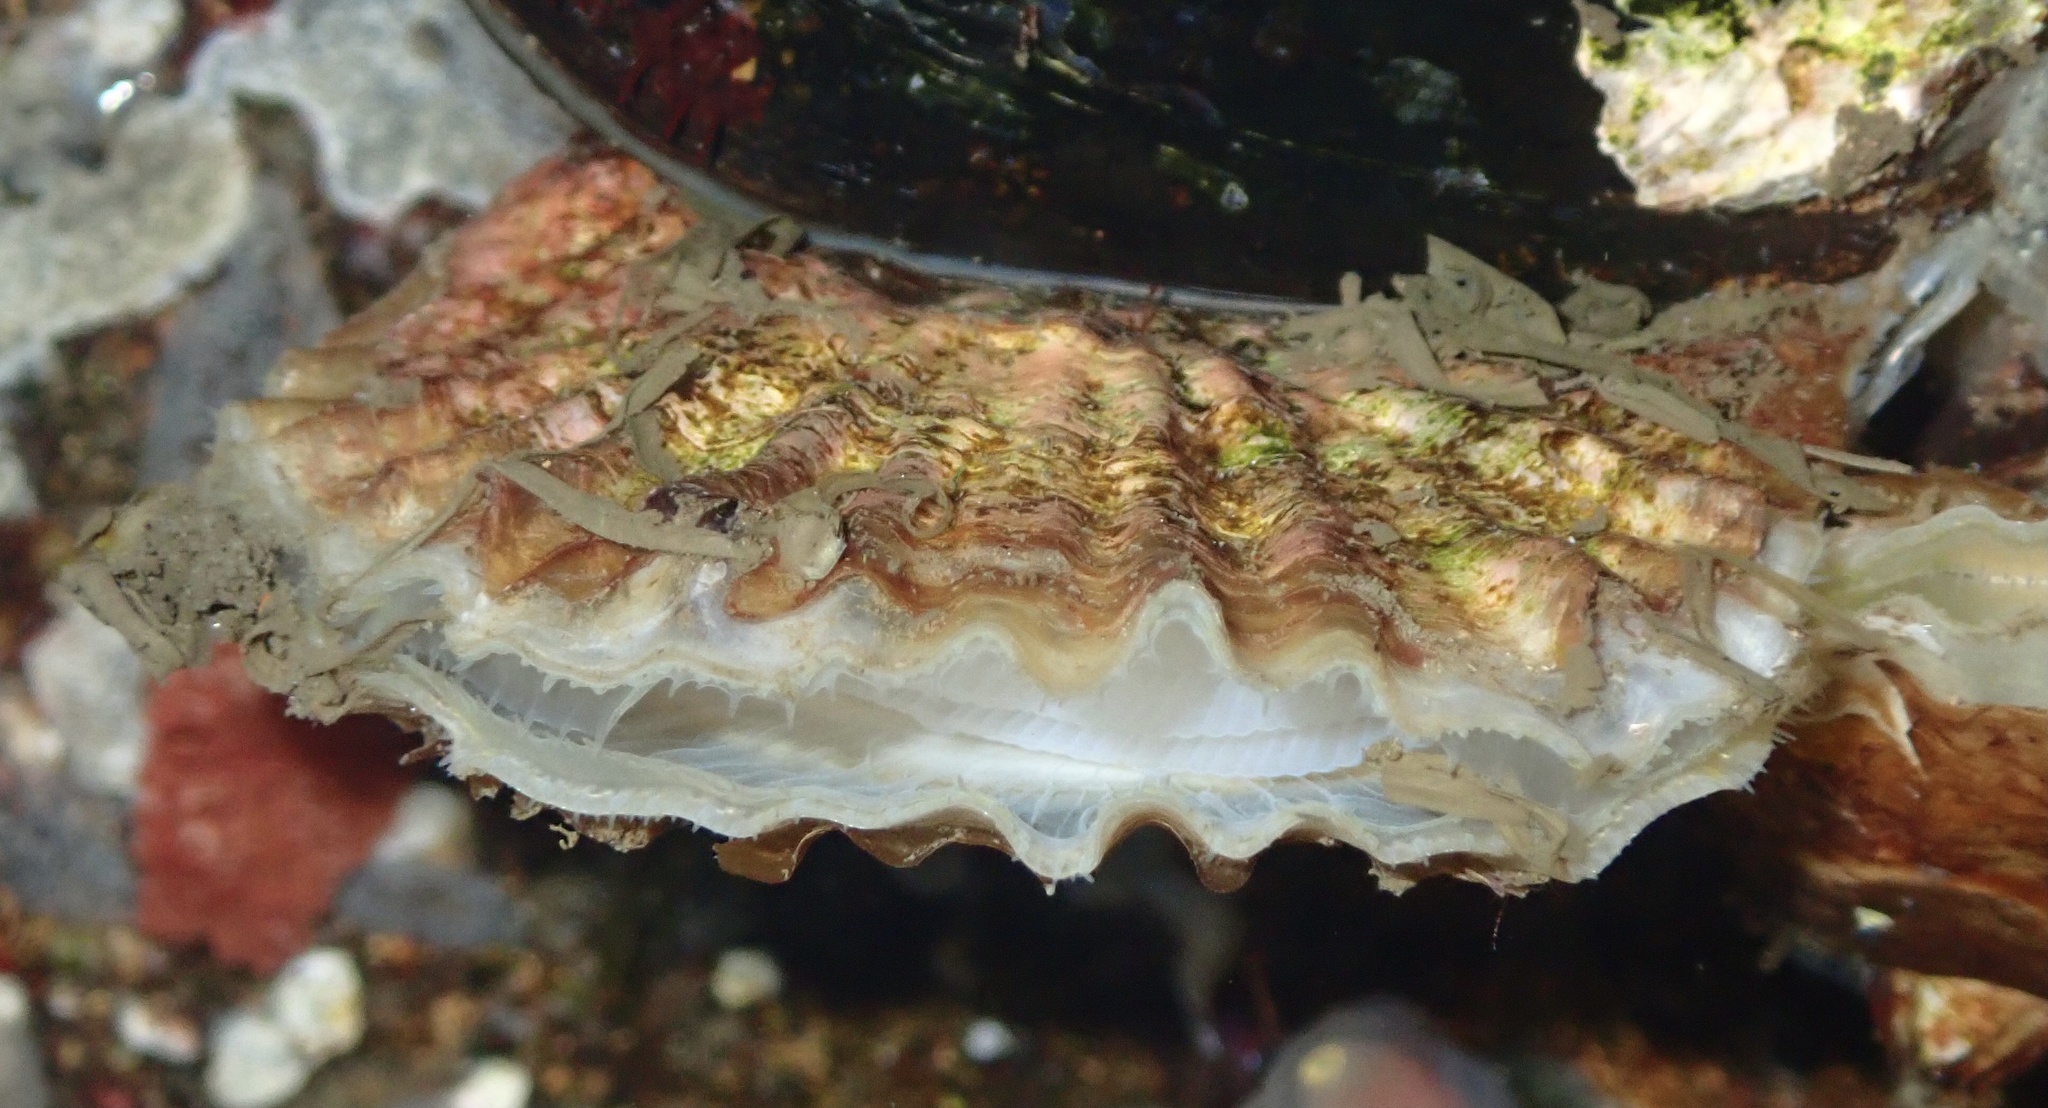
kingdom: Animalia
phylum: Mollusca
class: Bivalvia
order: Ostreida
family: Ostreidae
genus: Ostrea
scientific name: Ostrea edulis
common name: Flat oyster
